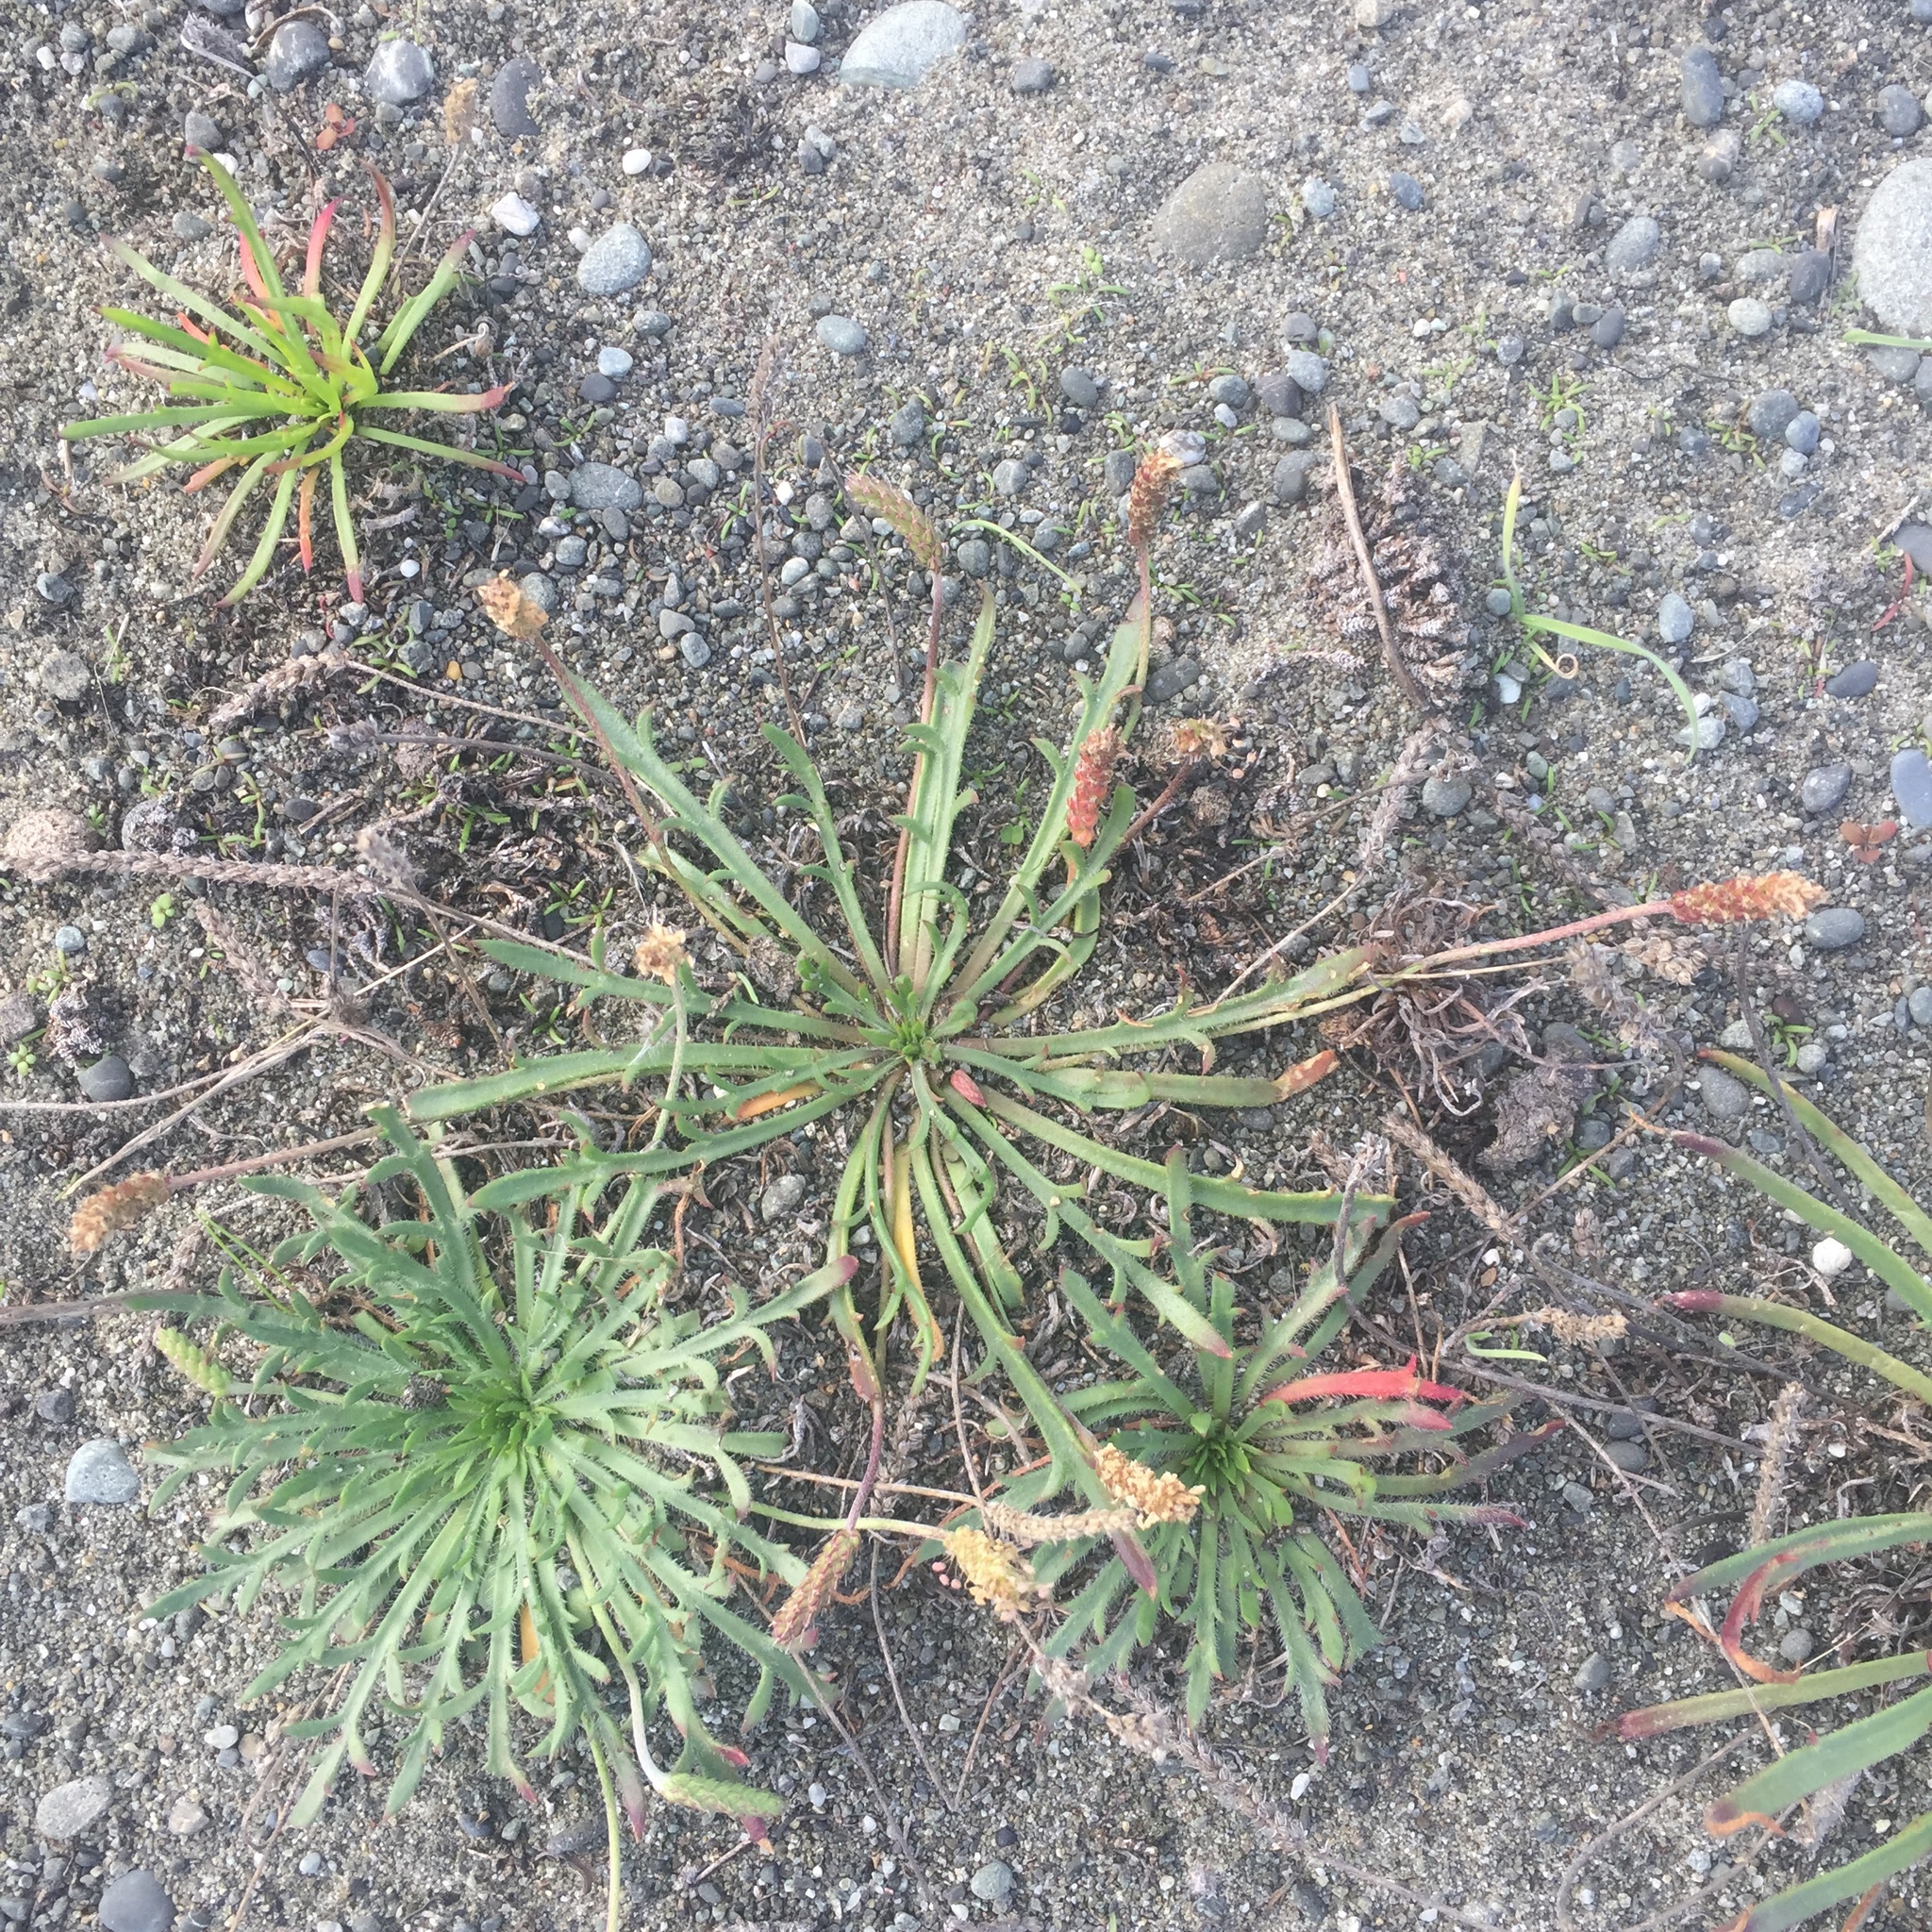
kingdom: Plantae
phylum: Tracheophyta
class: Magnoliopsida
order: Lamiales
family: Plantaginaceae
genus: Plantago
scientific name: Plantago coronopus
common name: Buck's-horn plantain
